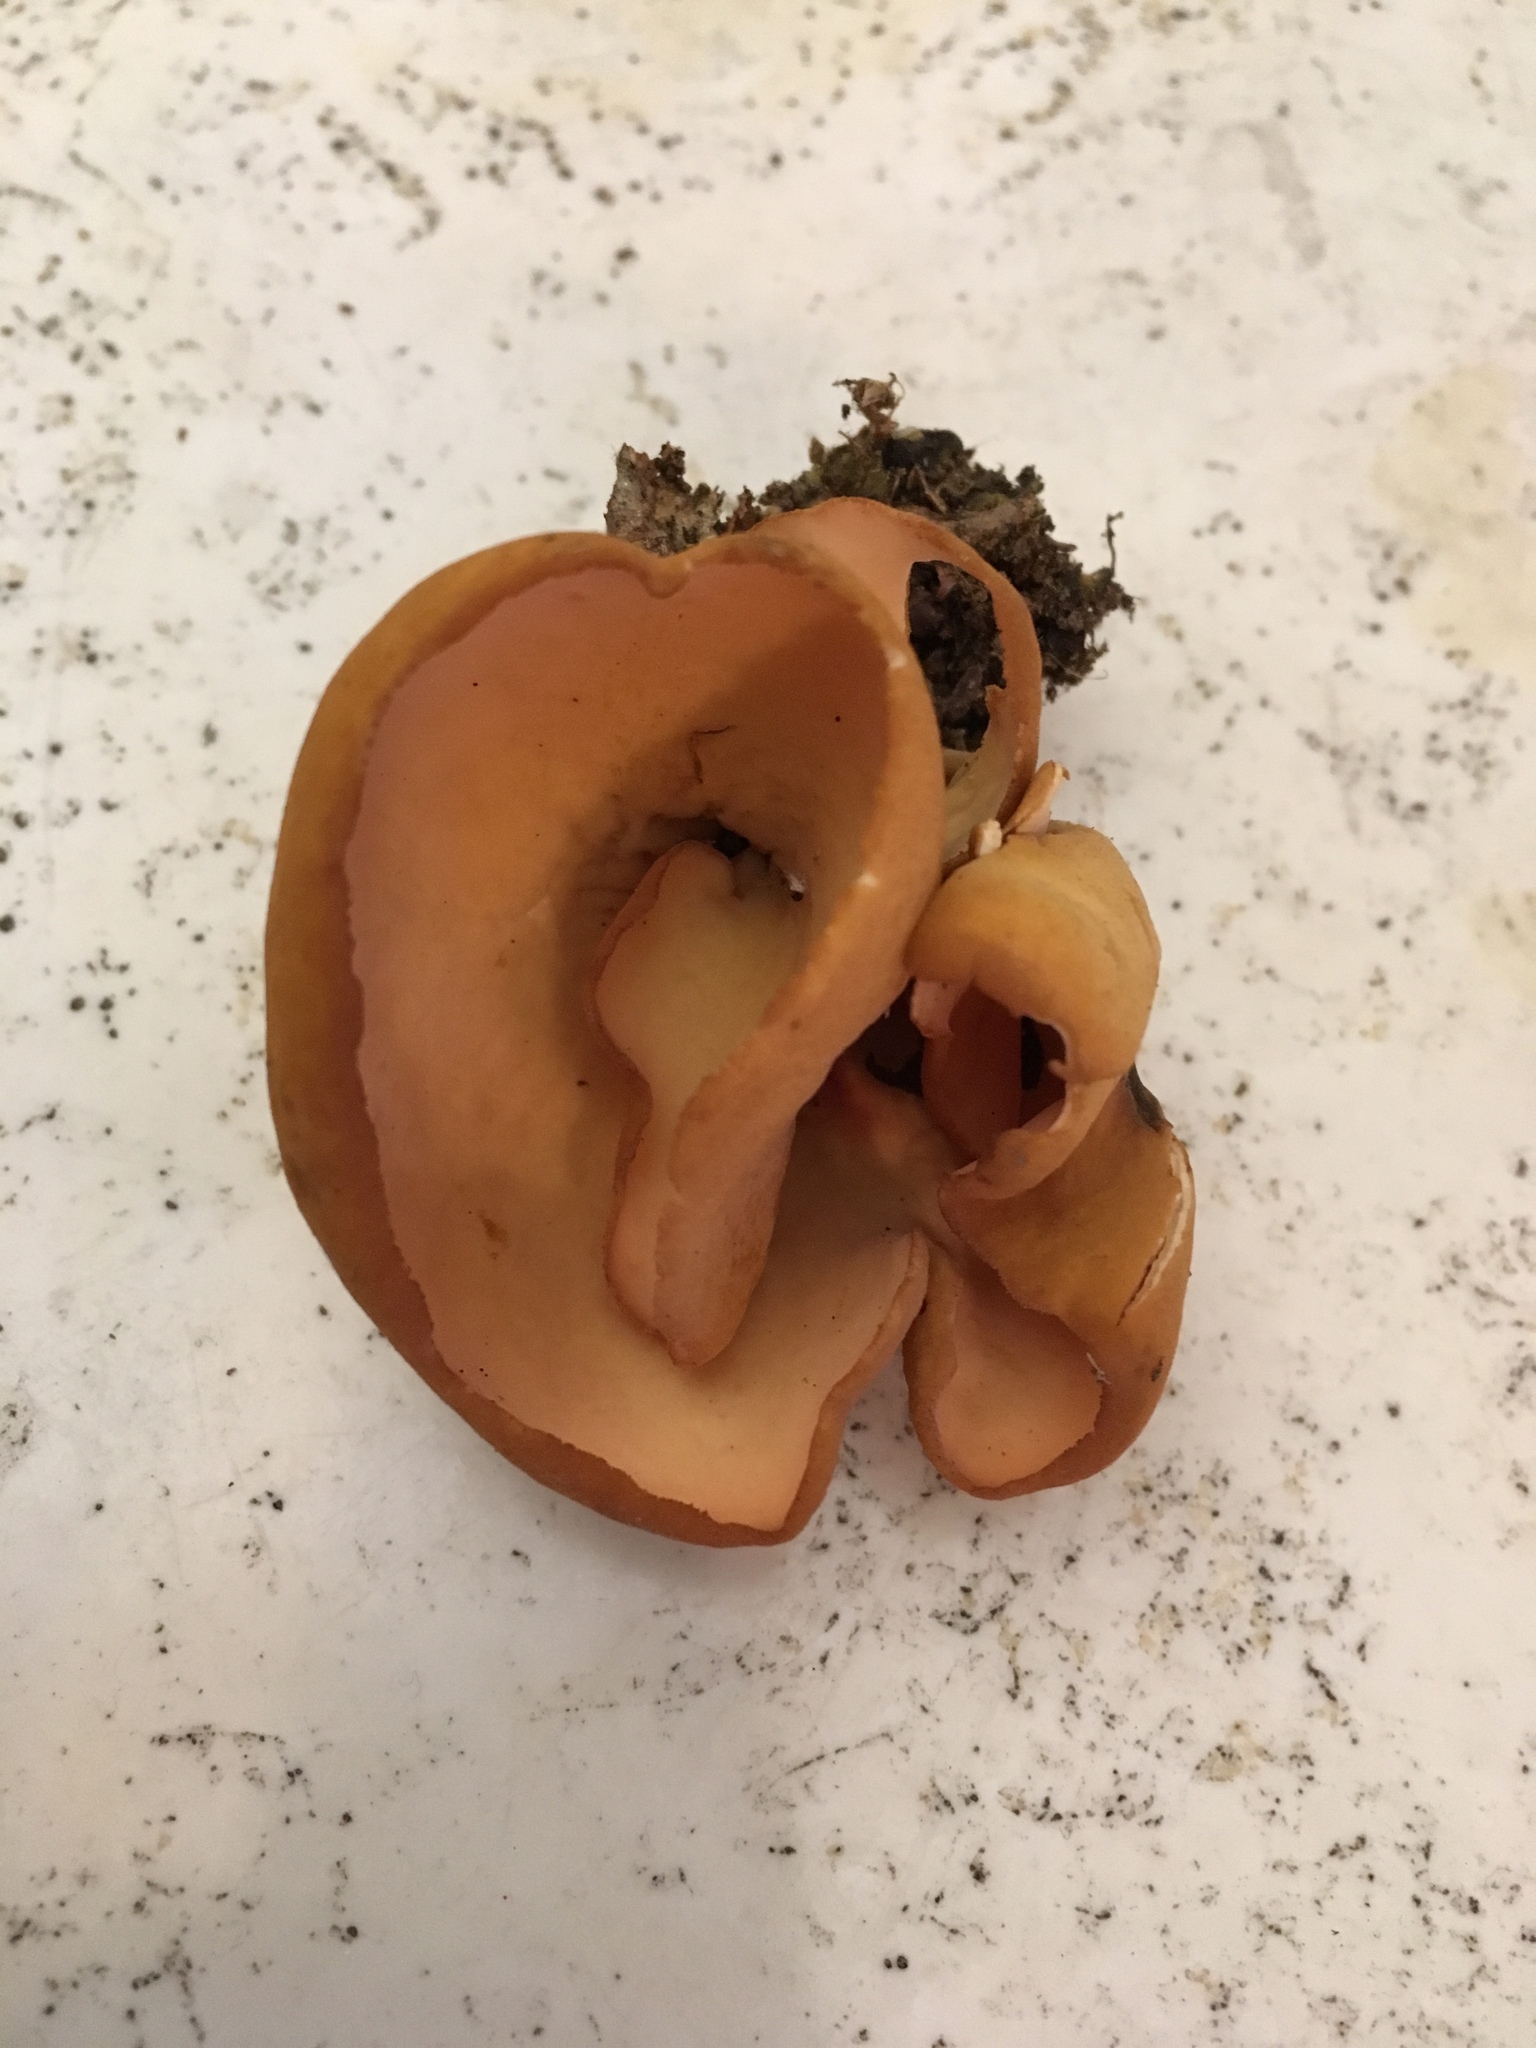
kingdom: Fungi
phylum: Ascomycota
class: Pezizomycetes
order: Pezizales
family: Otideaceae
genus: Otidea
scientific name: Otidea onotica
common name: Hare's ear
